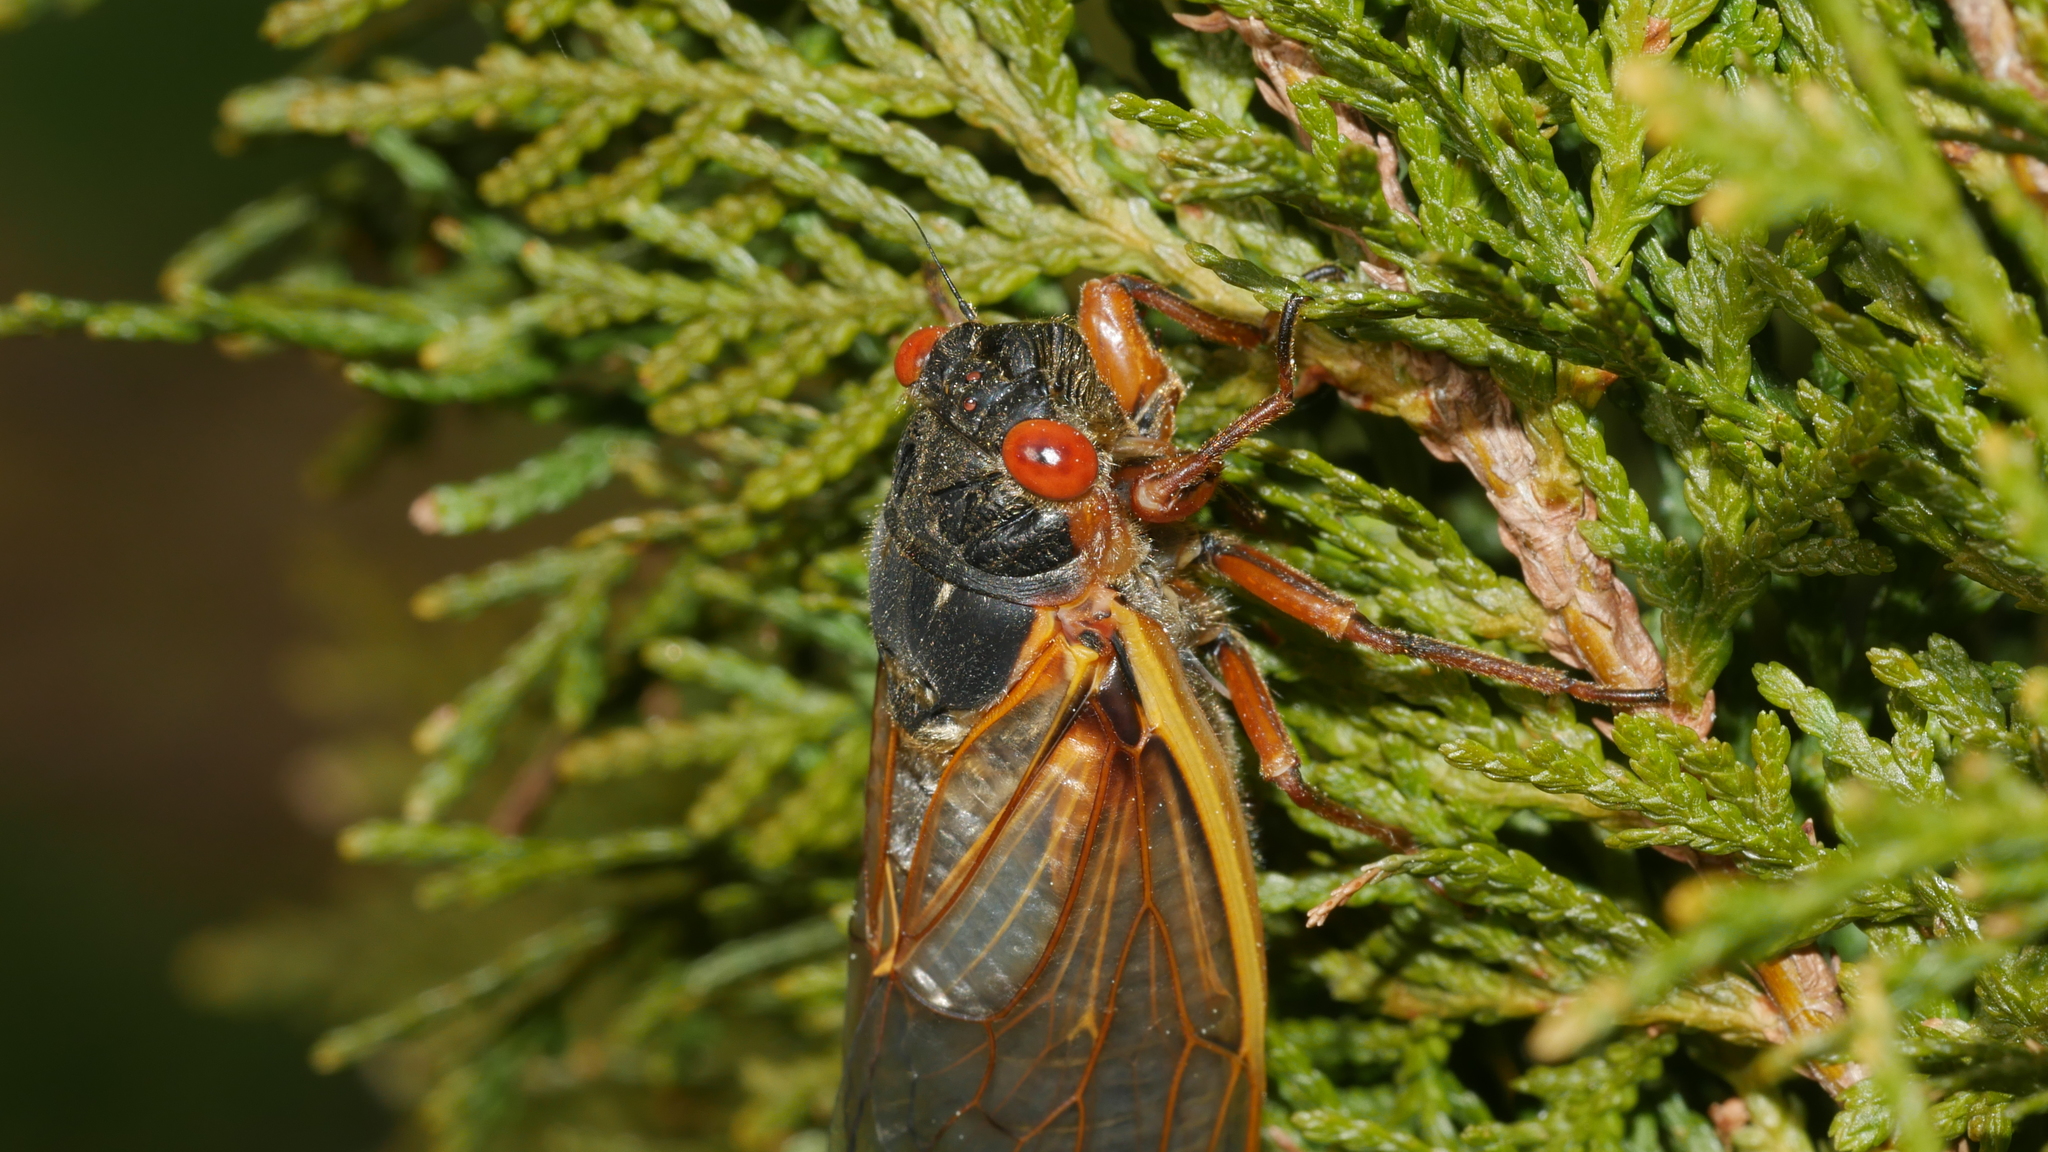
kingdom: Animalia
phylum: Arthropoda
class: Insecta
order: Hemiptera
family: Cicadidae
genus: Magicicada
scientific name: Magicicada septendecim
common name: Periodical cicada
